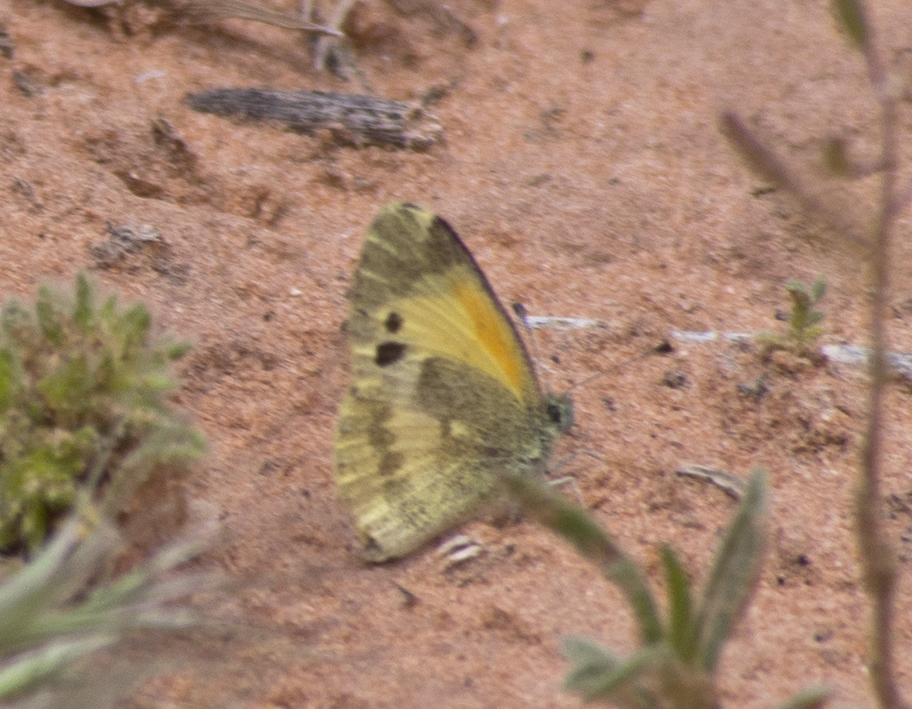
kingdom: Animalia
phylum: Arthropoda
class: Insecta
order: Lepidoptera
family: Pieridae
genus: Nathalis
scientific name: Nathalis iole
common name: Dainty sulphur
